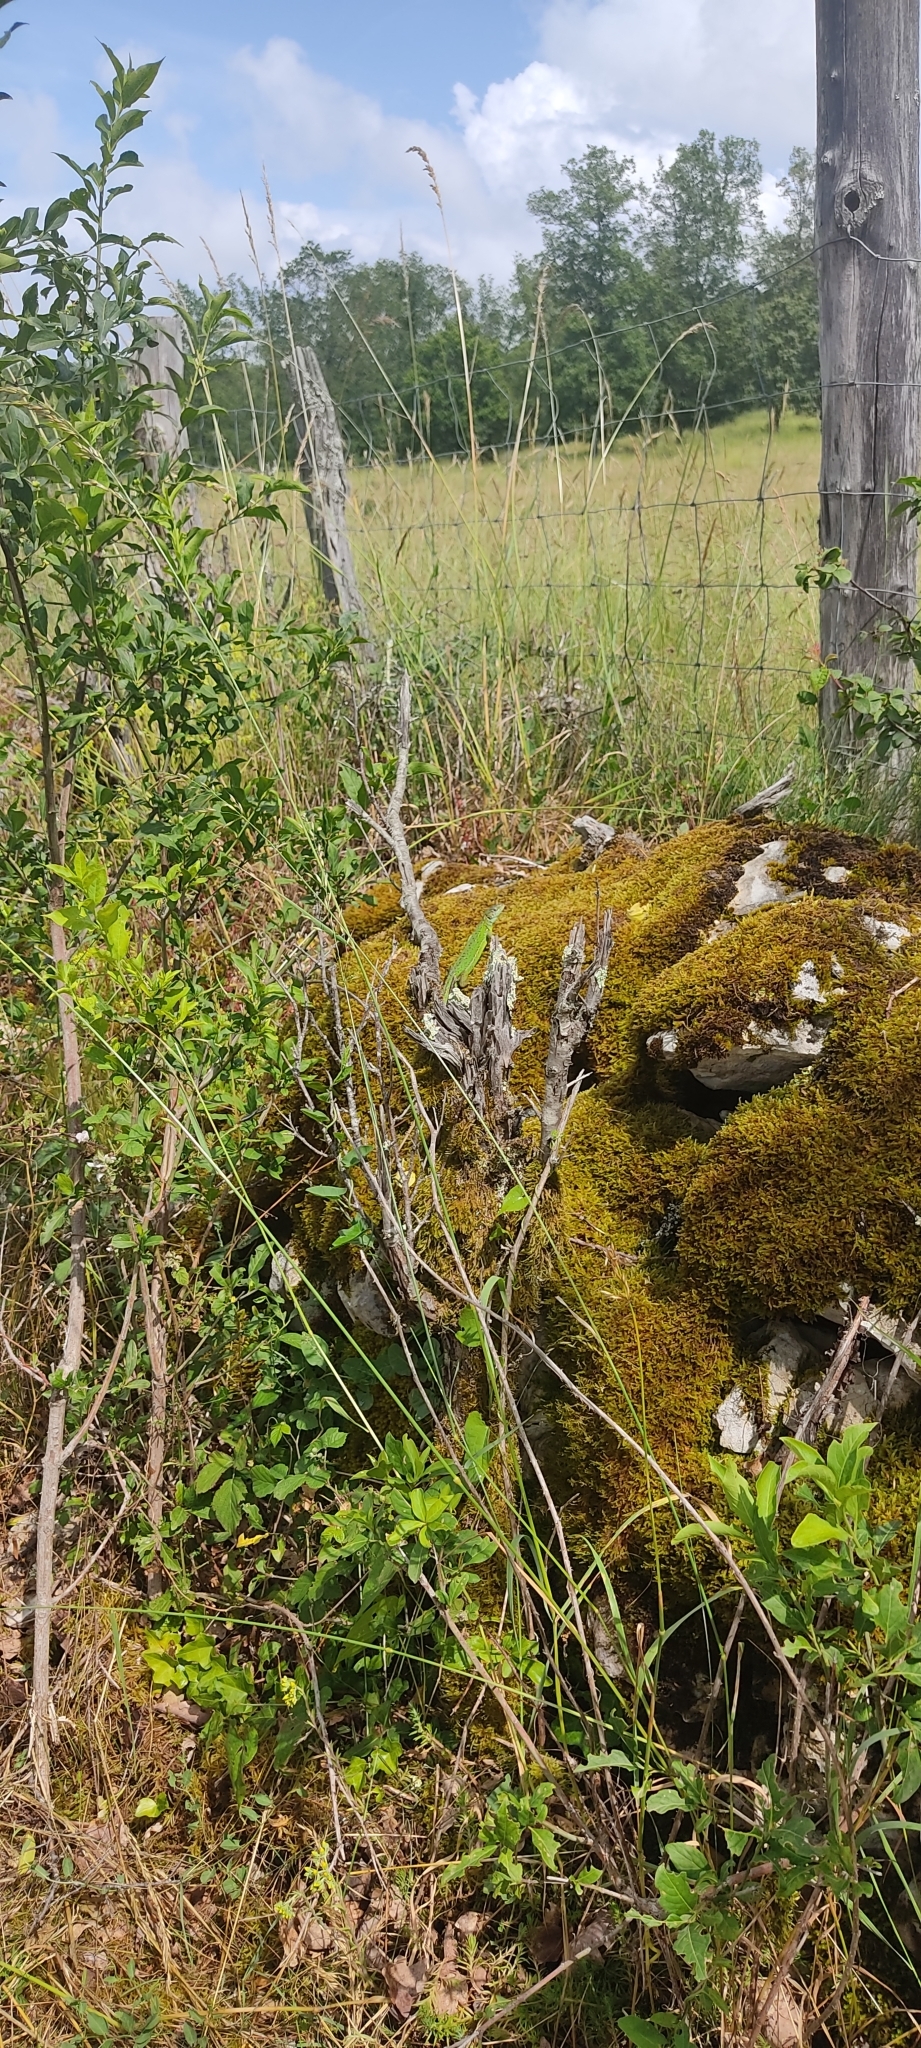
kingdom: Animalia
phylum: Chordata
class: Squamata
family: Lacertidae
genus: Lacerta
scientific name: Lacerta bilineata
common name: Western green lizard
